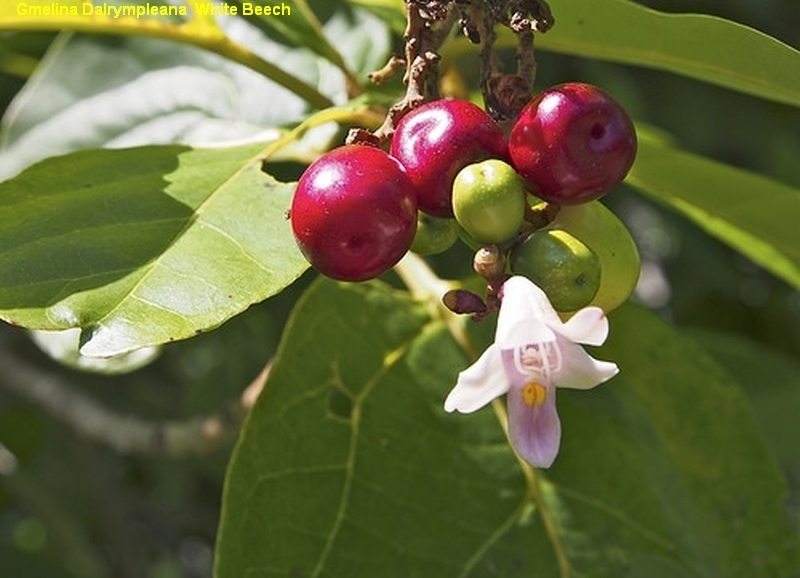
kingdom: Plantae
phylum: Tracheophyta
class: Magnoliopsida
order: Lamiales
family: Lamiaceae
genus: Gmelina
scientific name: Gmelina dalrympleana
